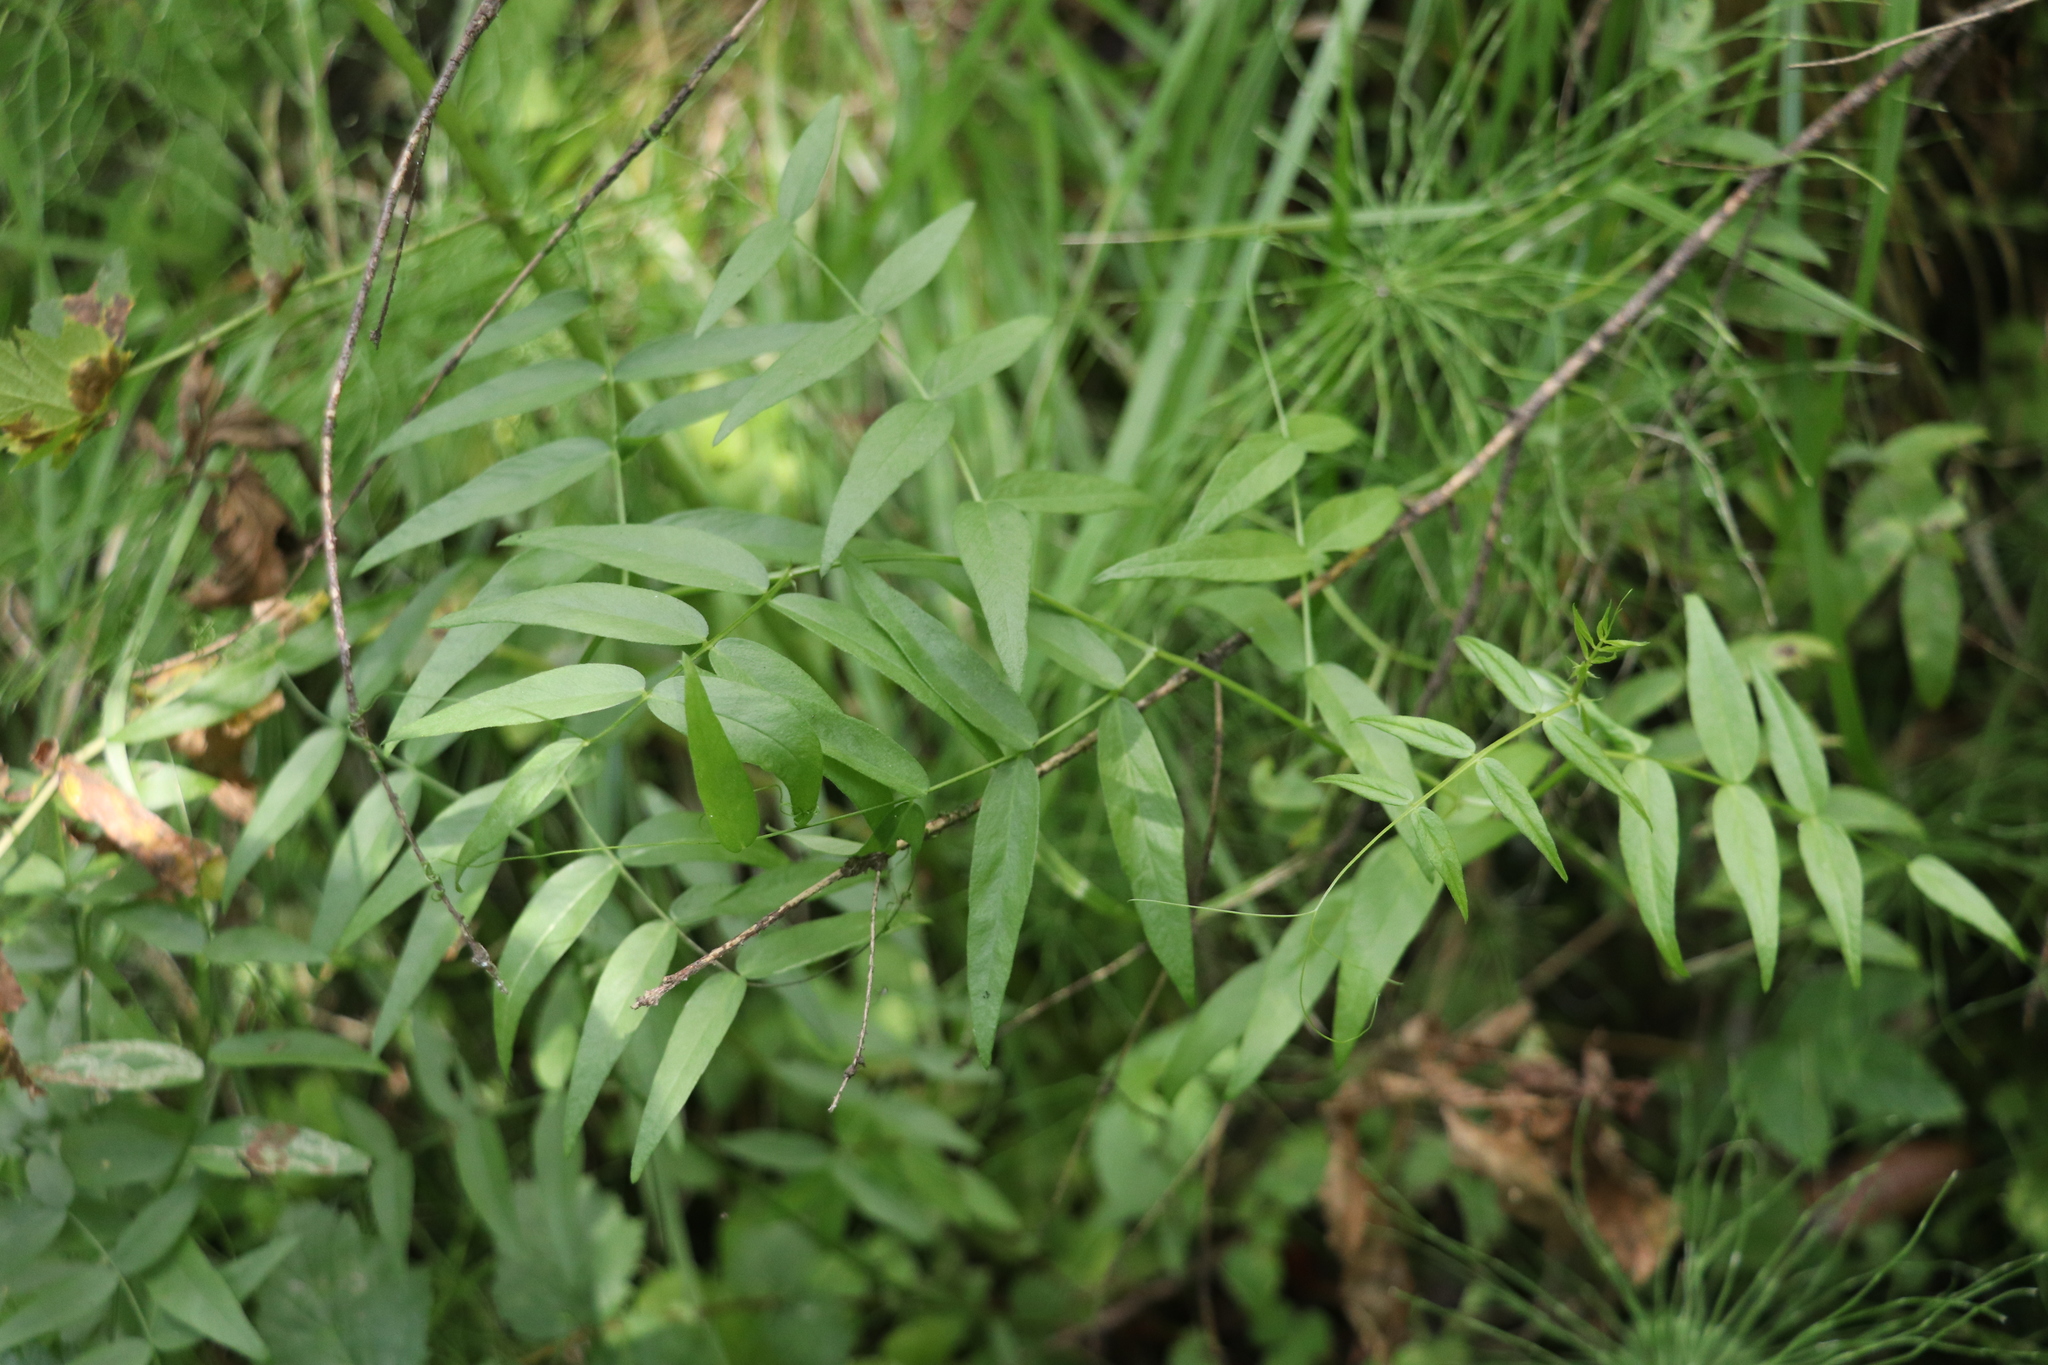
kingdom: Plantae
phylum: Tracheophyta
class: Magnoliopsida
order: Fabales
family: Fabaceae
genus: Vicia
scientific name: Vicia sepium
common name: Bush vetch
